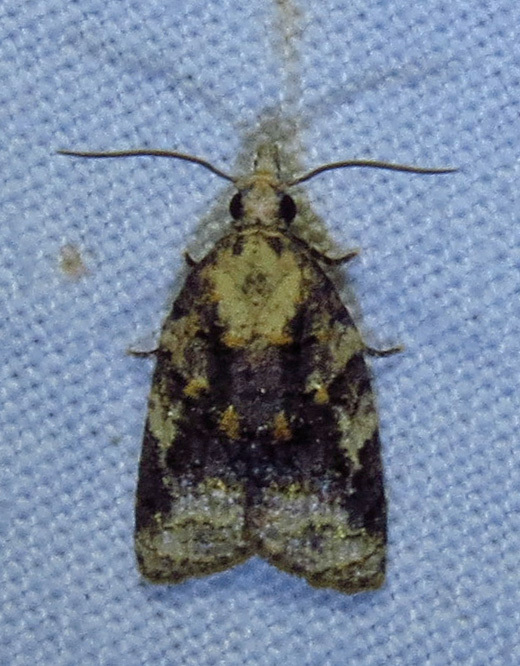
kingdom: Animalia
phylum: Arthropoda
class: Insecta
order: Lepidoptera
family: Tortricidae
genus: Platynota
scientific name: Platynota exasperatana
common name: Exasperating platynota moth
